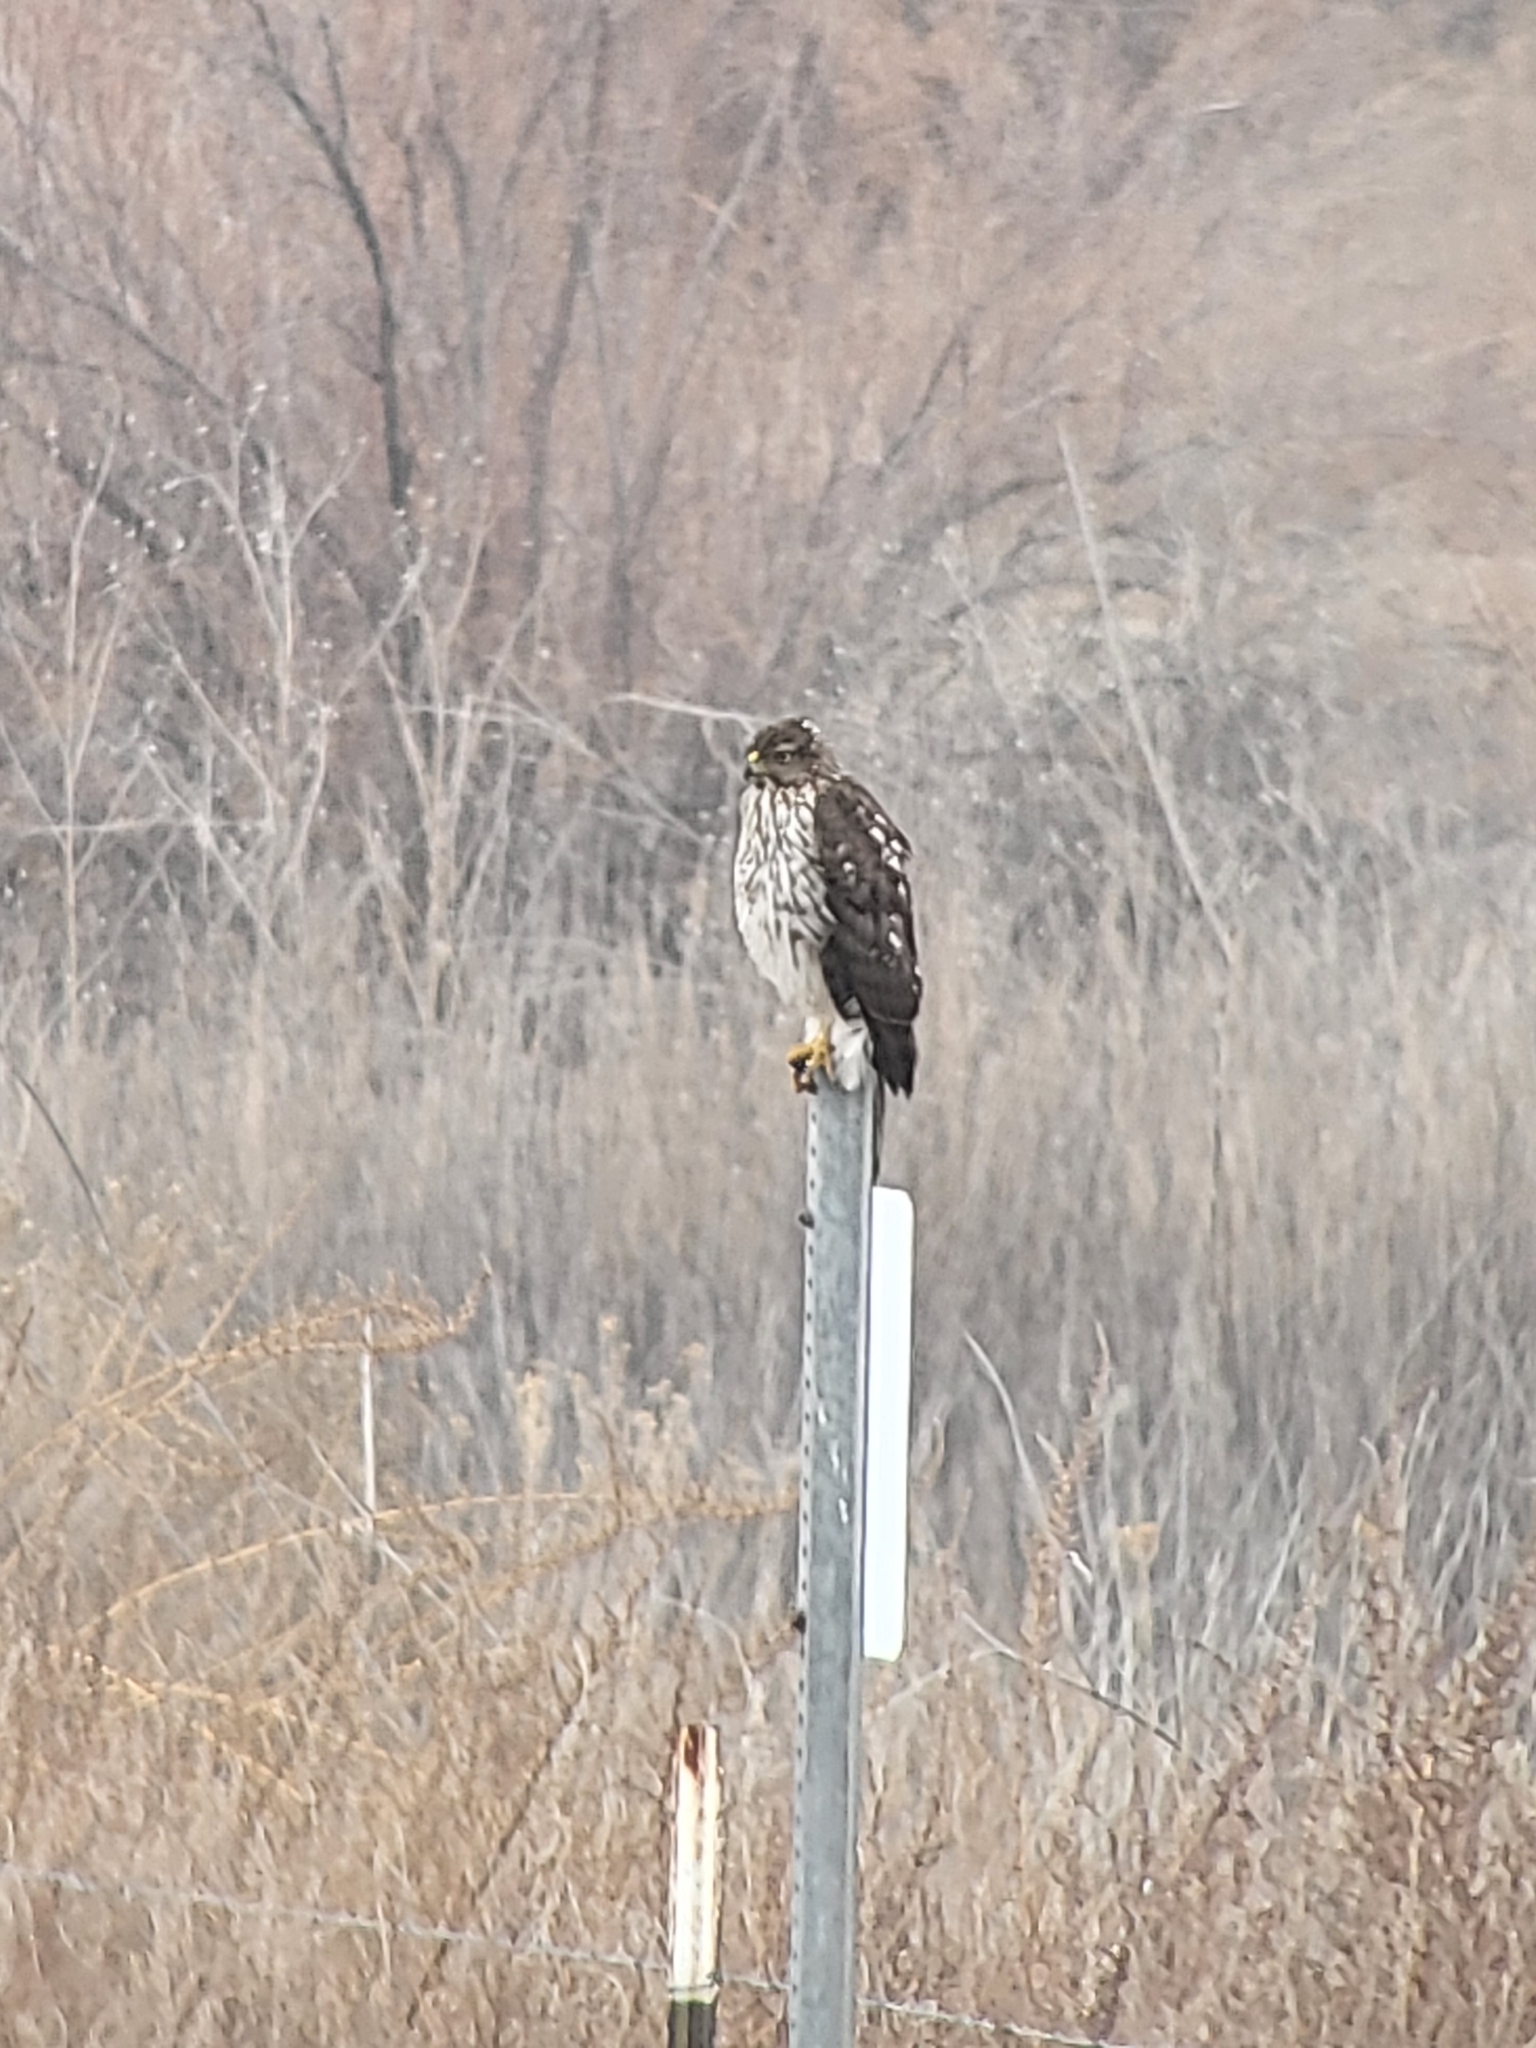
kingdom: Animalia
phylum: Chordata
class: Aves
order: Accipitriformes
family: Accipitridae
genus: Accipiter
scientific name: Accipiter cooperii
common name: Cooper's hawk
